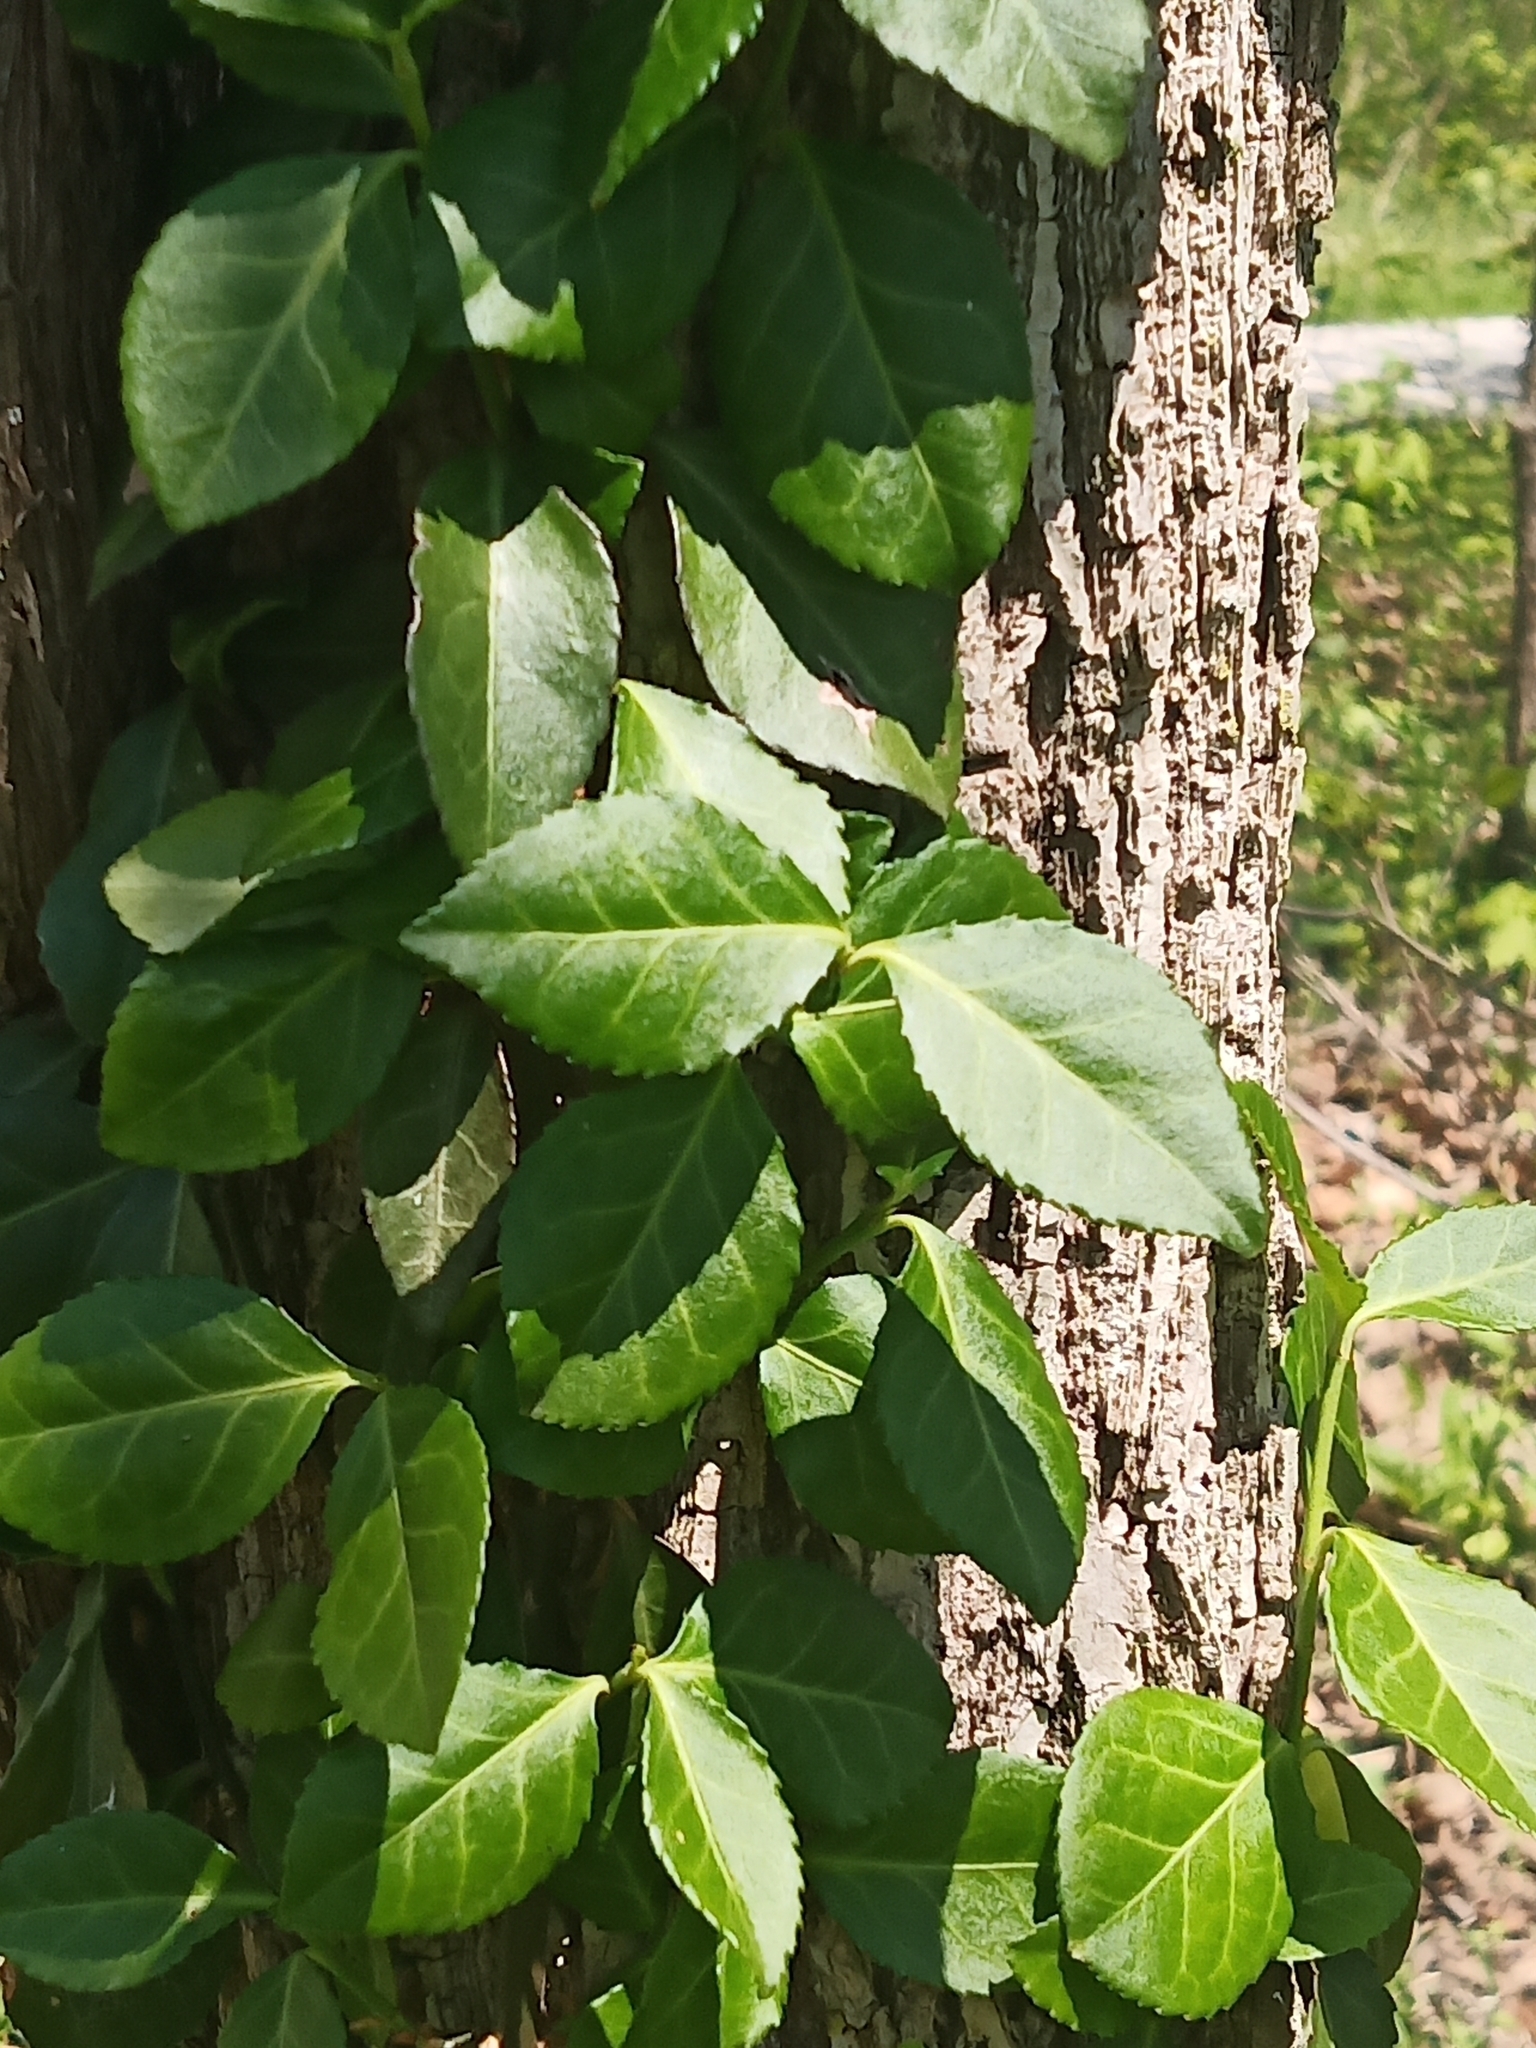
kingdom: Plantae
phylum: Tracheophyta
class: Magnoliopsida
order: Celastrales
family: Celastraceae
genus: Euonymus
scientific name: Euonymus fortunei
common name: Climbing euonymus
